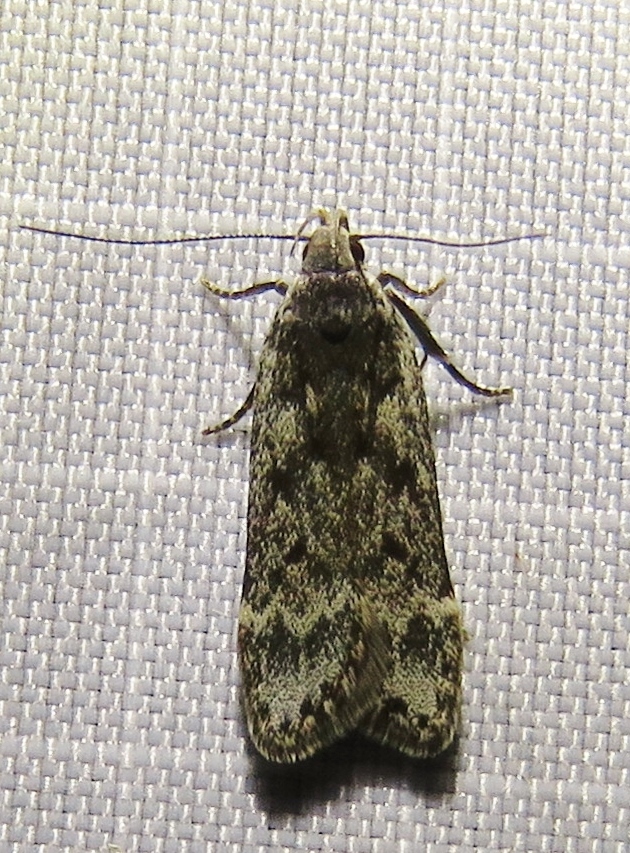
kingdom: Animalia
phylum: Arthropoda
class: Insecta
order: Lepidoptera
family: Gelechiidae
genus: Anacampsis
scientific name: Anacampsis populella
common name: Poplar leafroller
